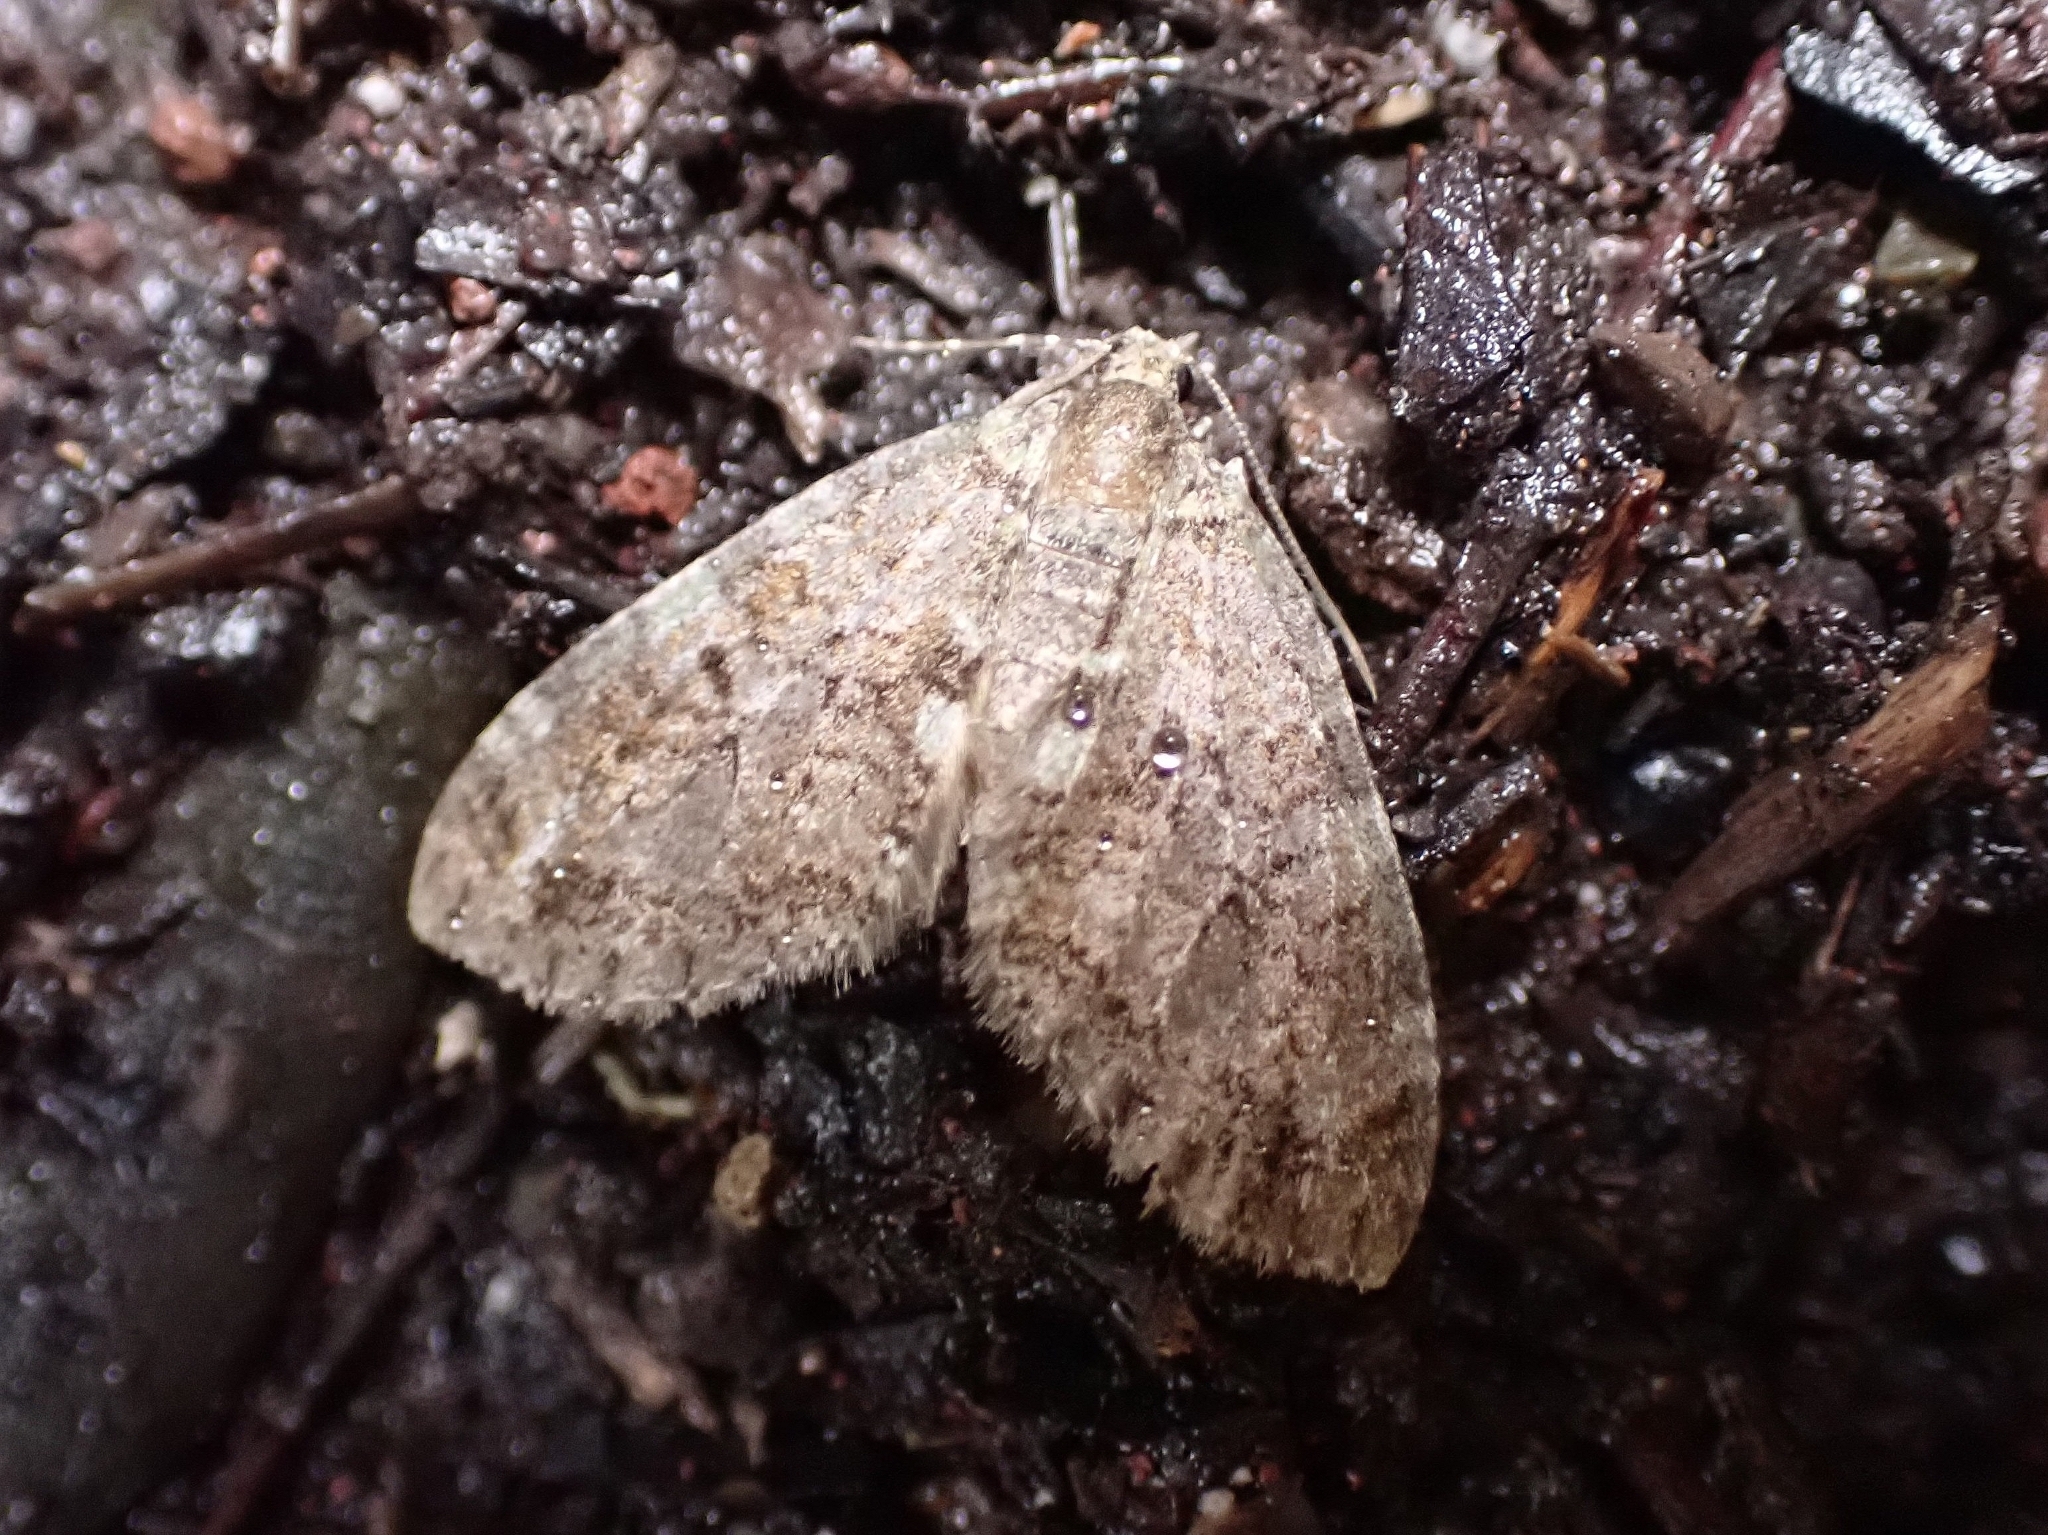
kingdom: Animalia
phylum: Arthropoda
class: Insecta
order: Lepidoptera
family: Geometridae
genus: Episauris
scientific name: Episauris kiliani
